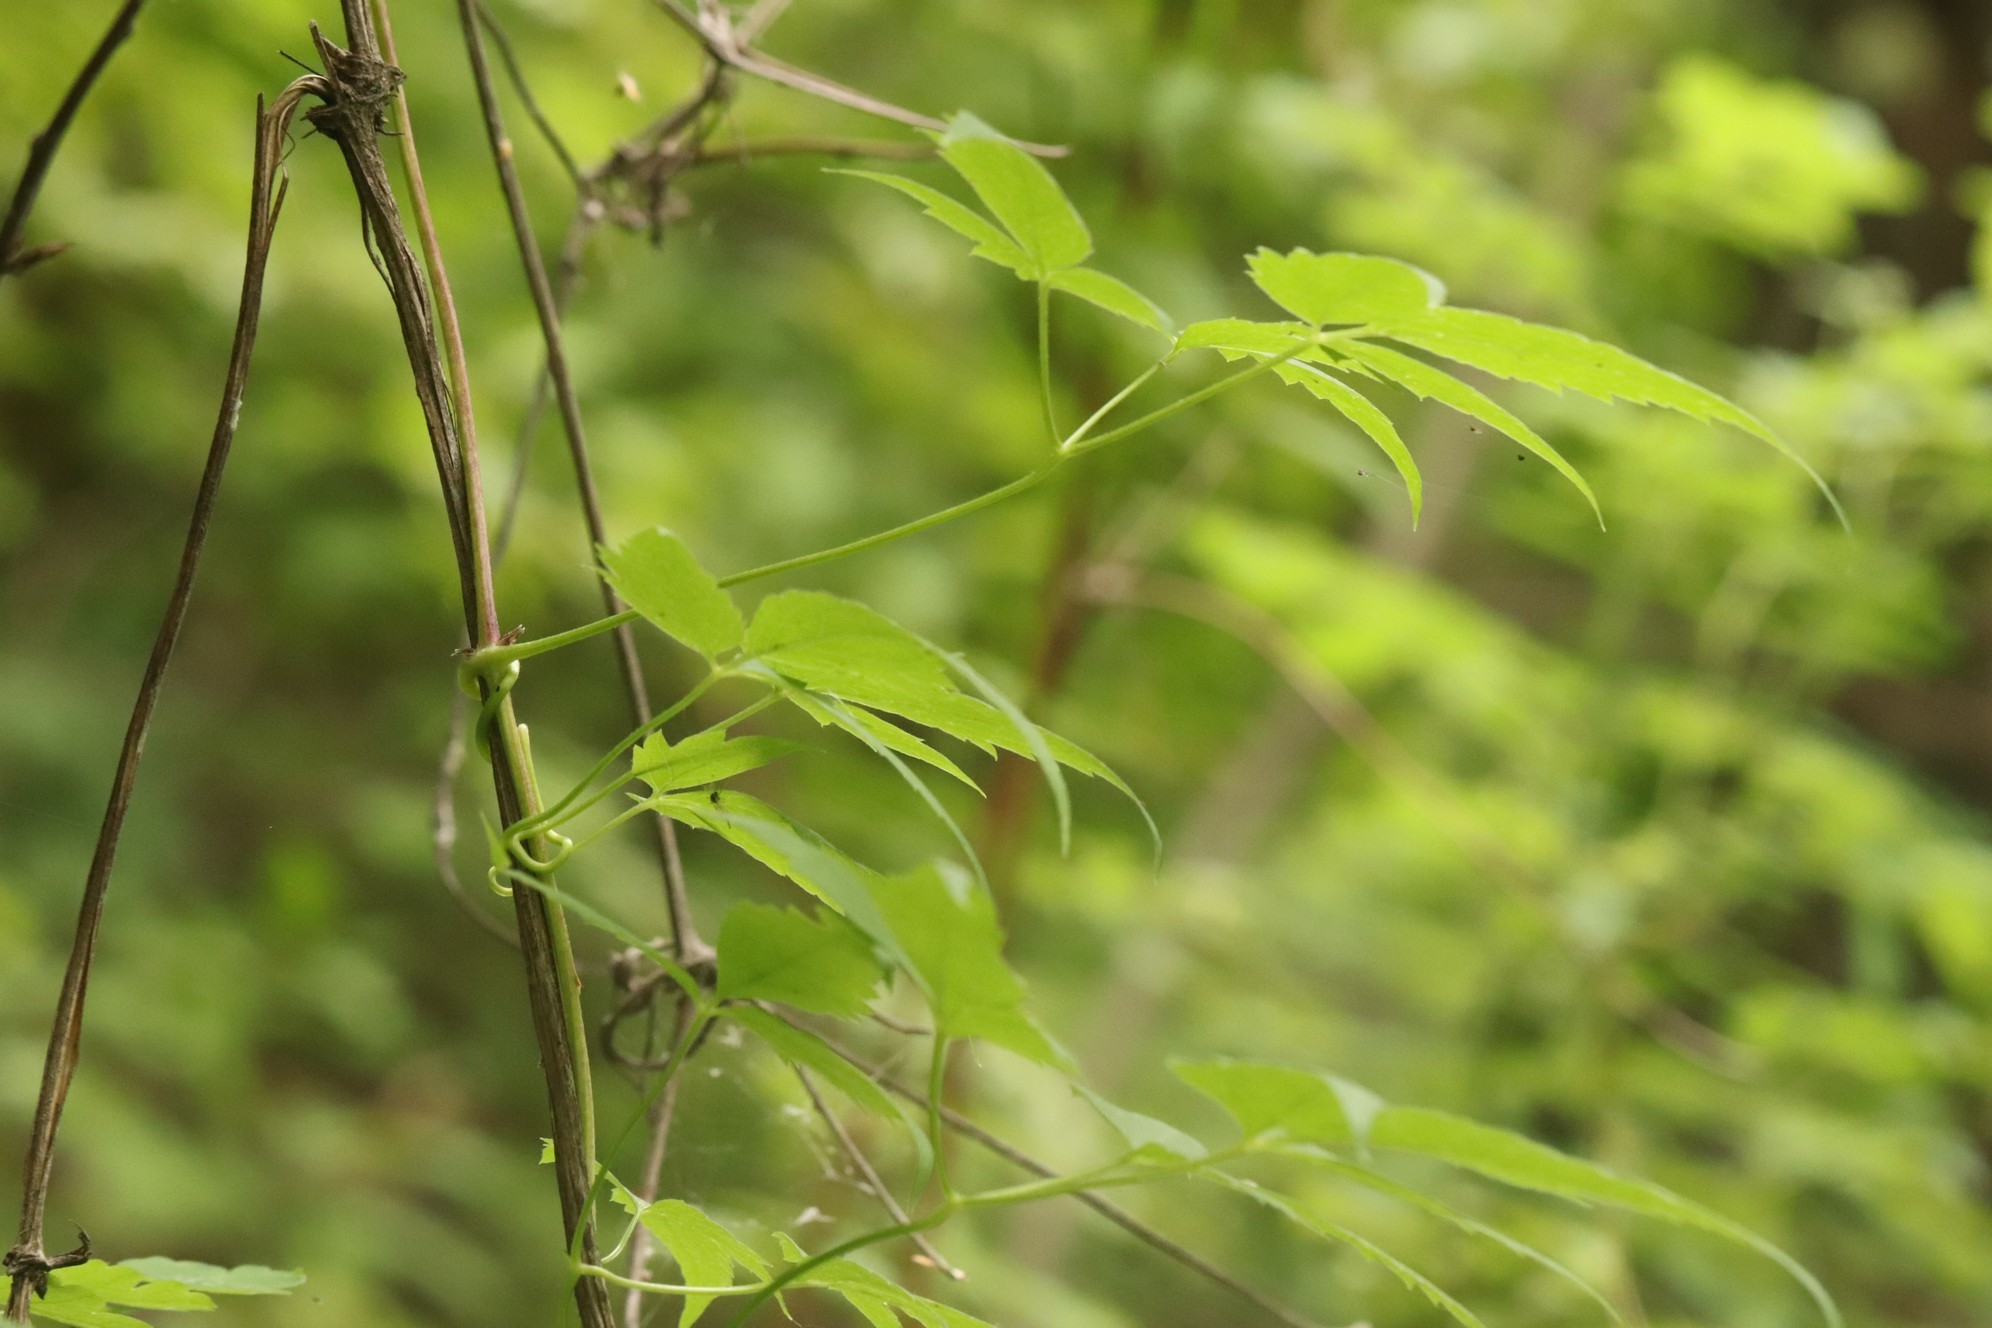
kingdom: Plantae
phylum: Tracheophyta
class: Magnoliopsida
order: Ranunculales
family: Ranunculaceae
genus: Clematis
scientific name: Clematis sibirica
